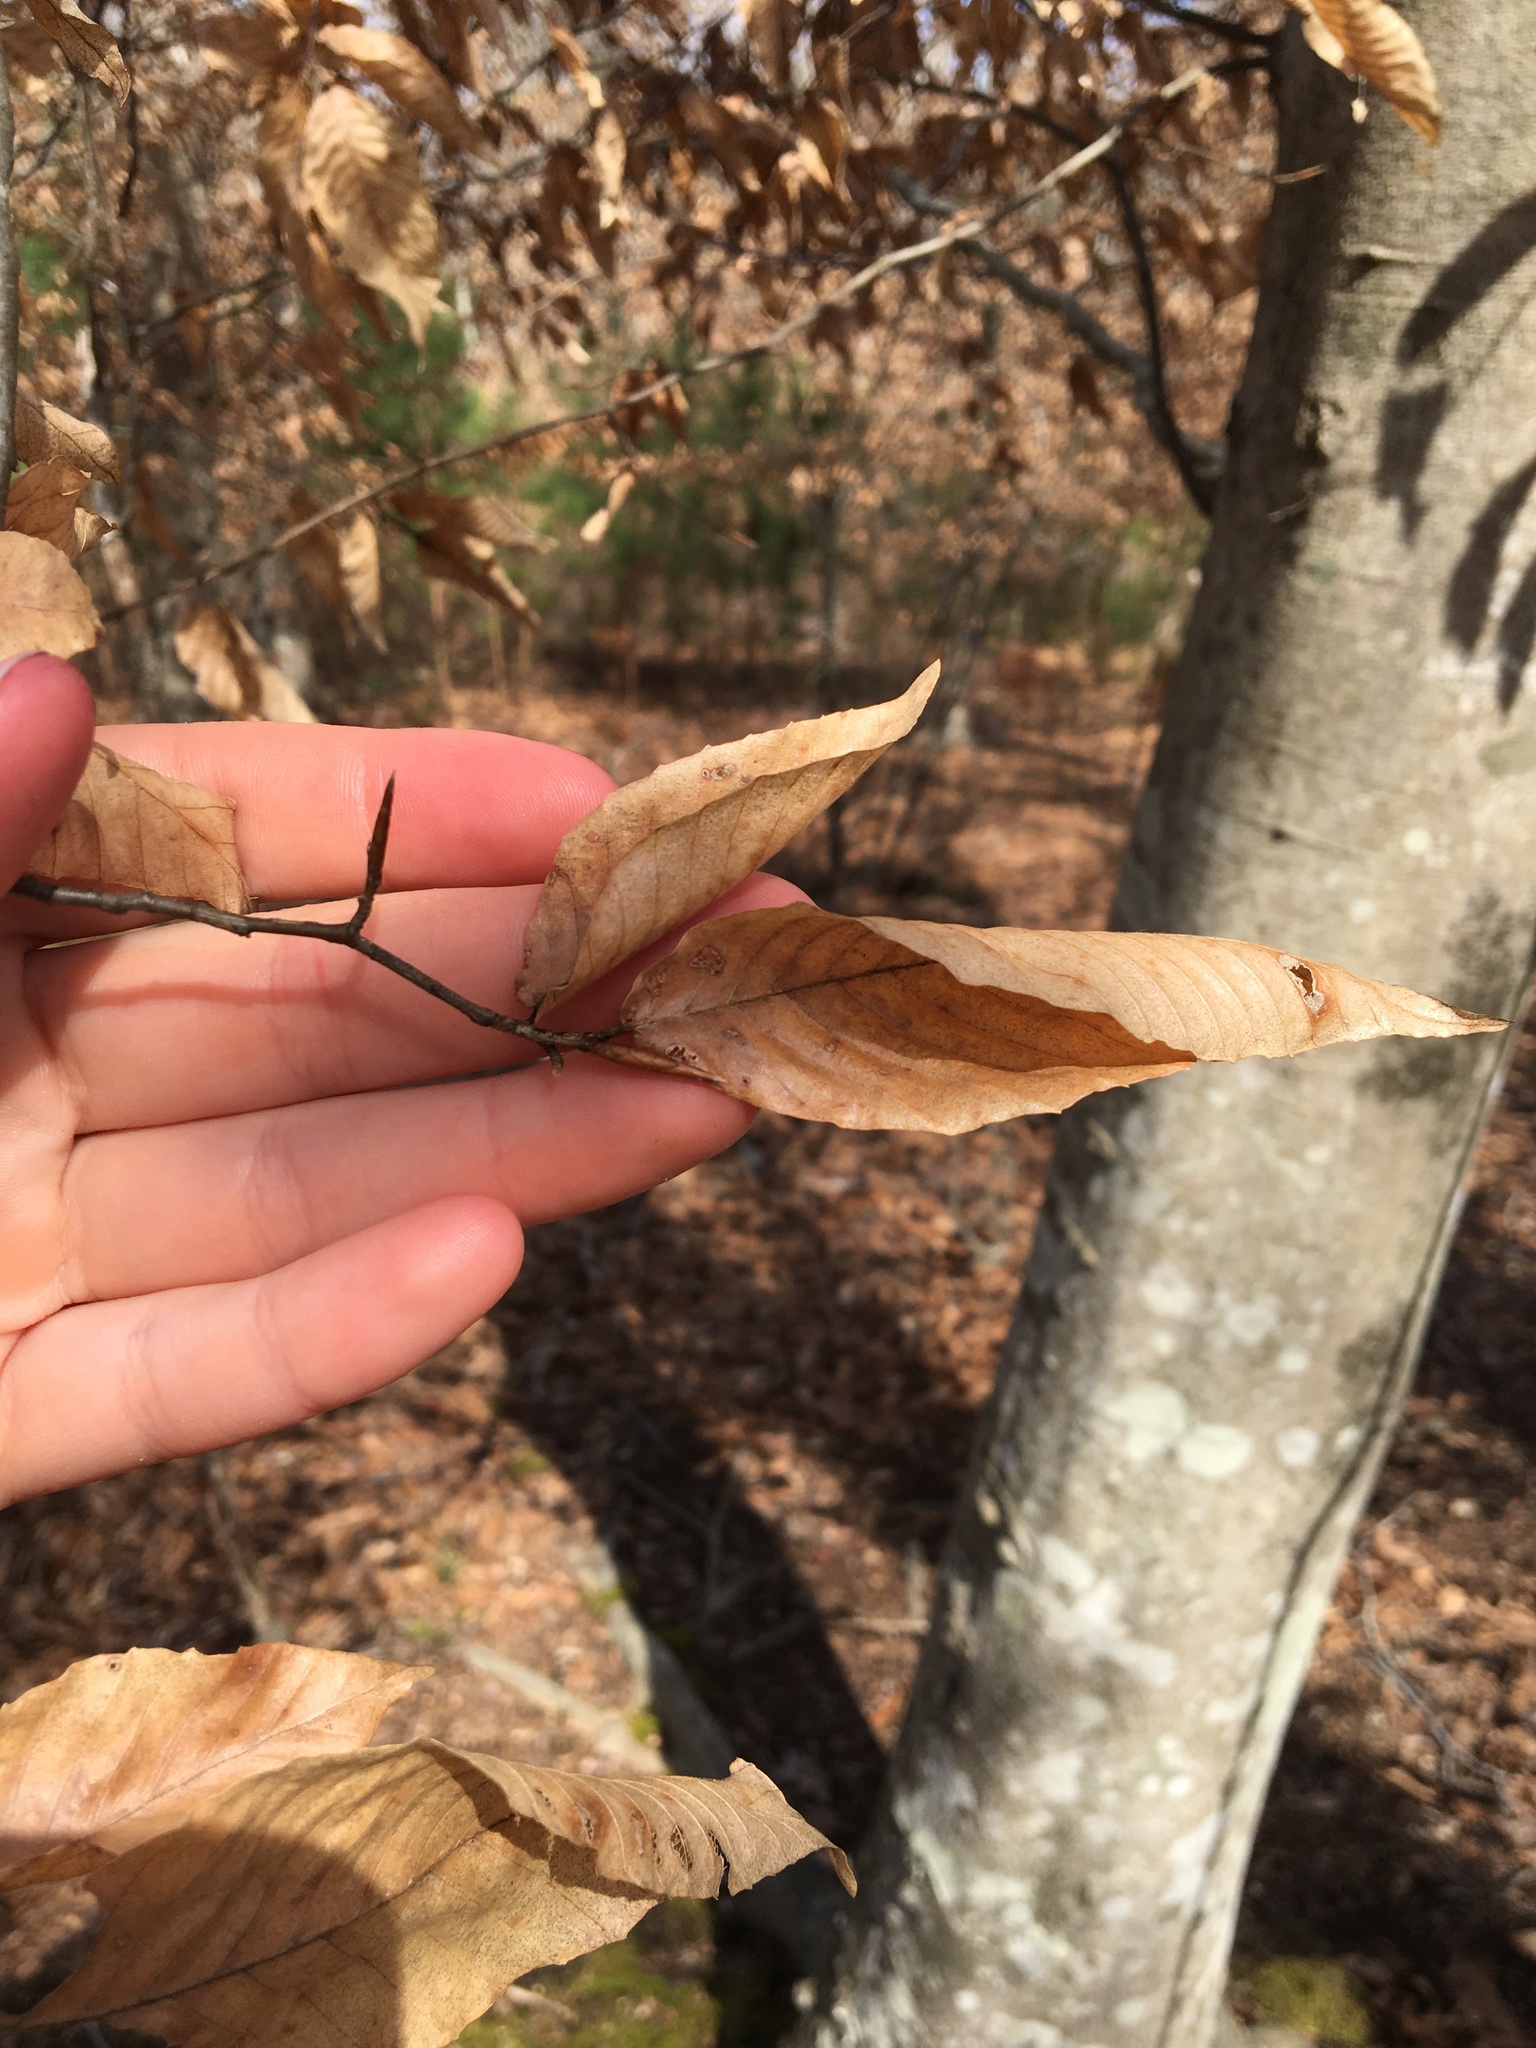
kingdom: Plantae
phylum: Tracheophyta
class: Magnoliopsida
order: Fagales
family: Fagaceae
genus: Fagus
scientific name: Fagus grandifolia
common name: American beech
